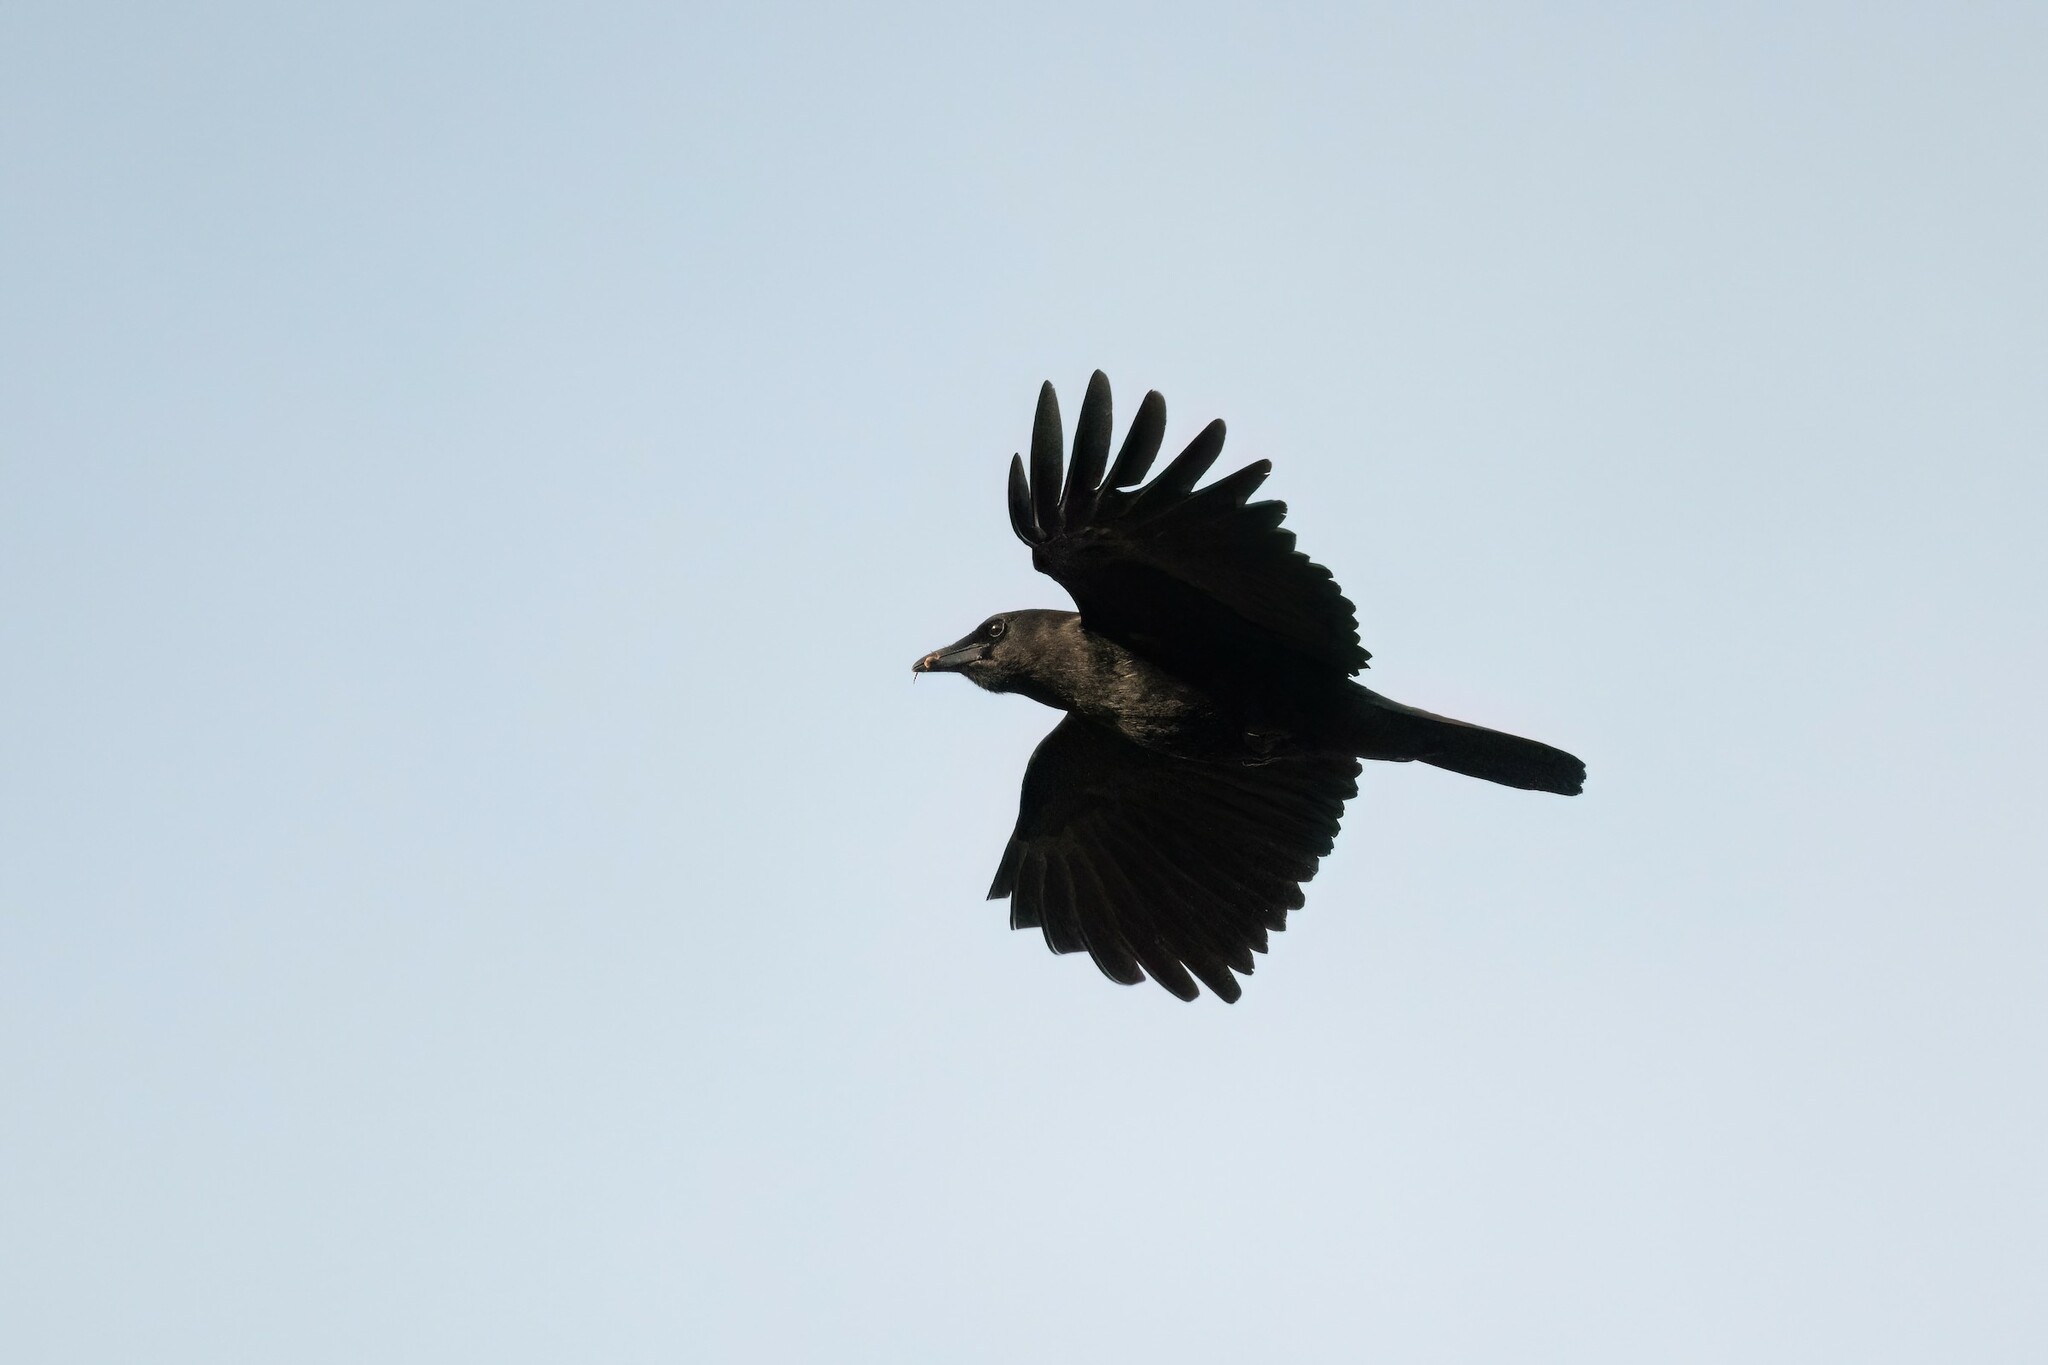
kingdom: Animalia
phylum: Chordata
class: Aves
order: Passeriformes
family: Corvidae
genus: Corvus
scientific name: Corvus brachyrhynchos
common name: American crow
